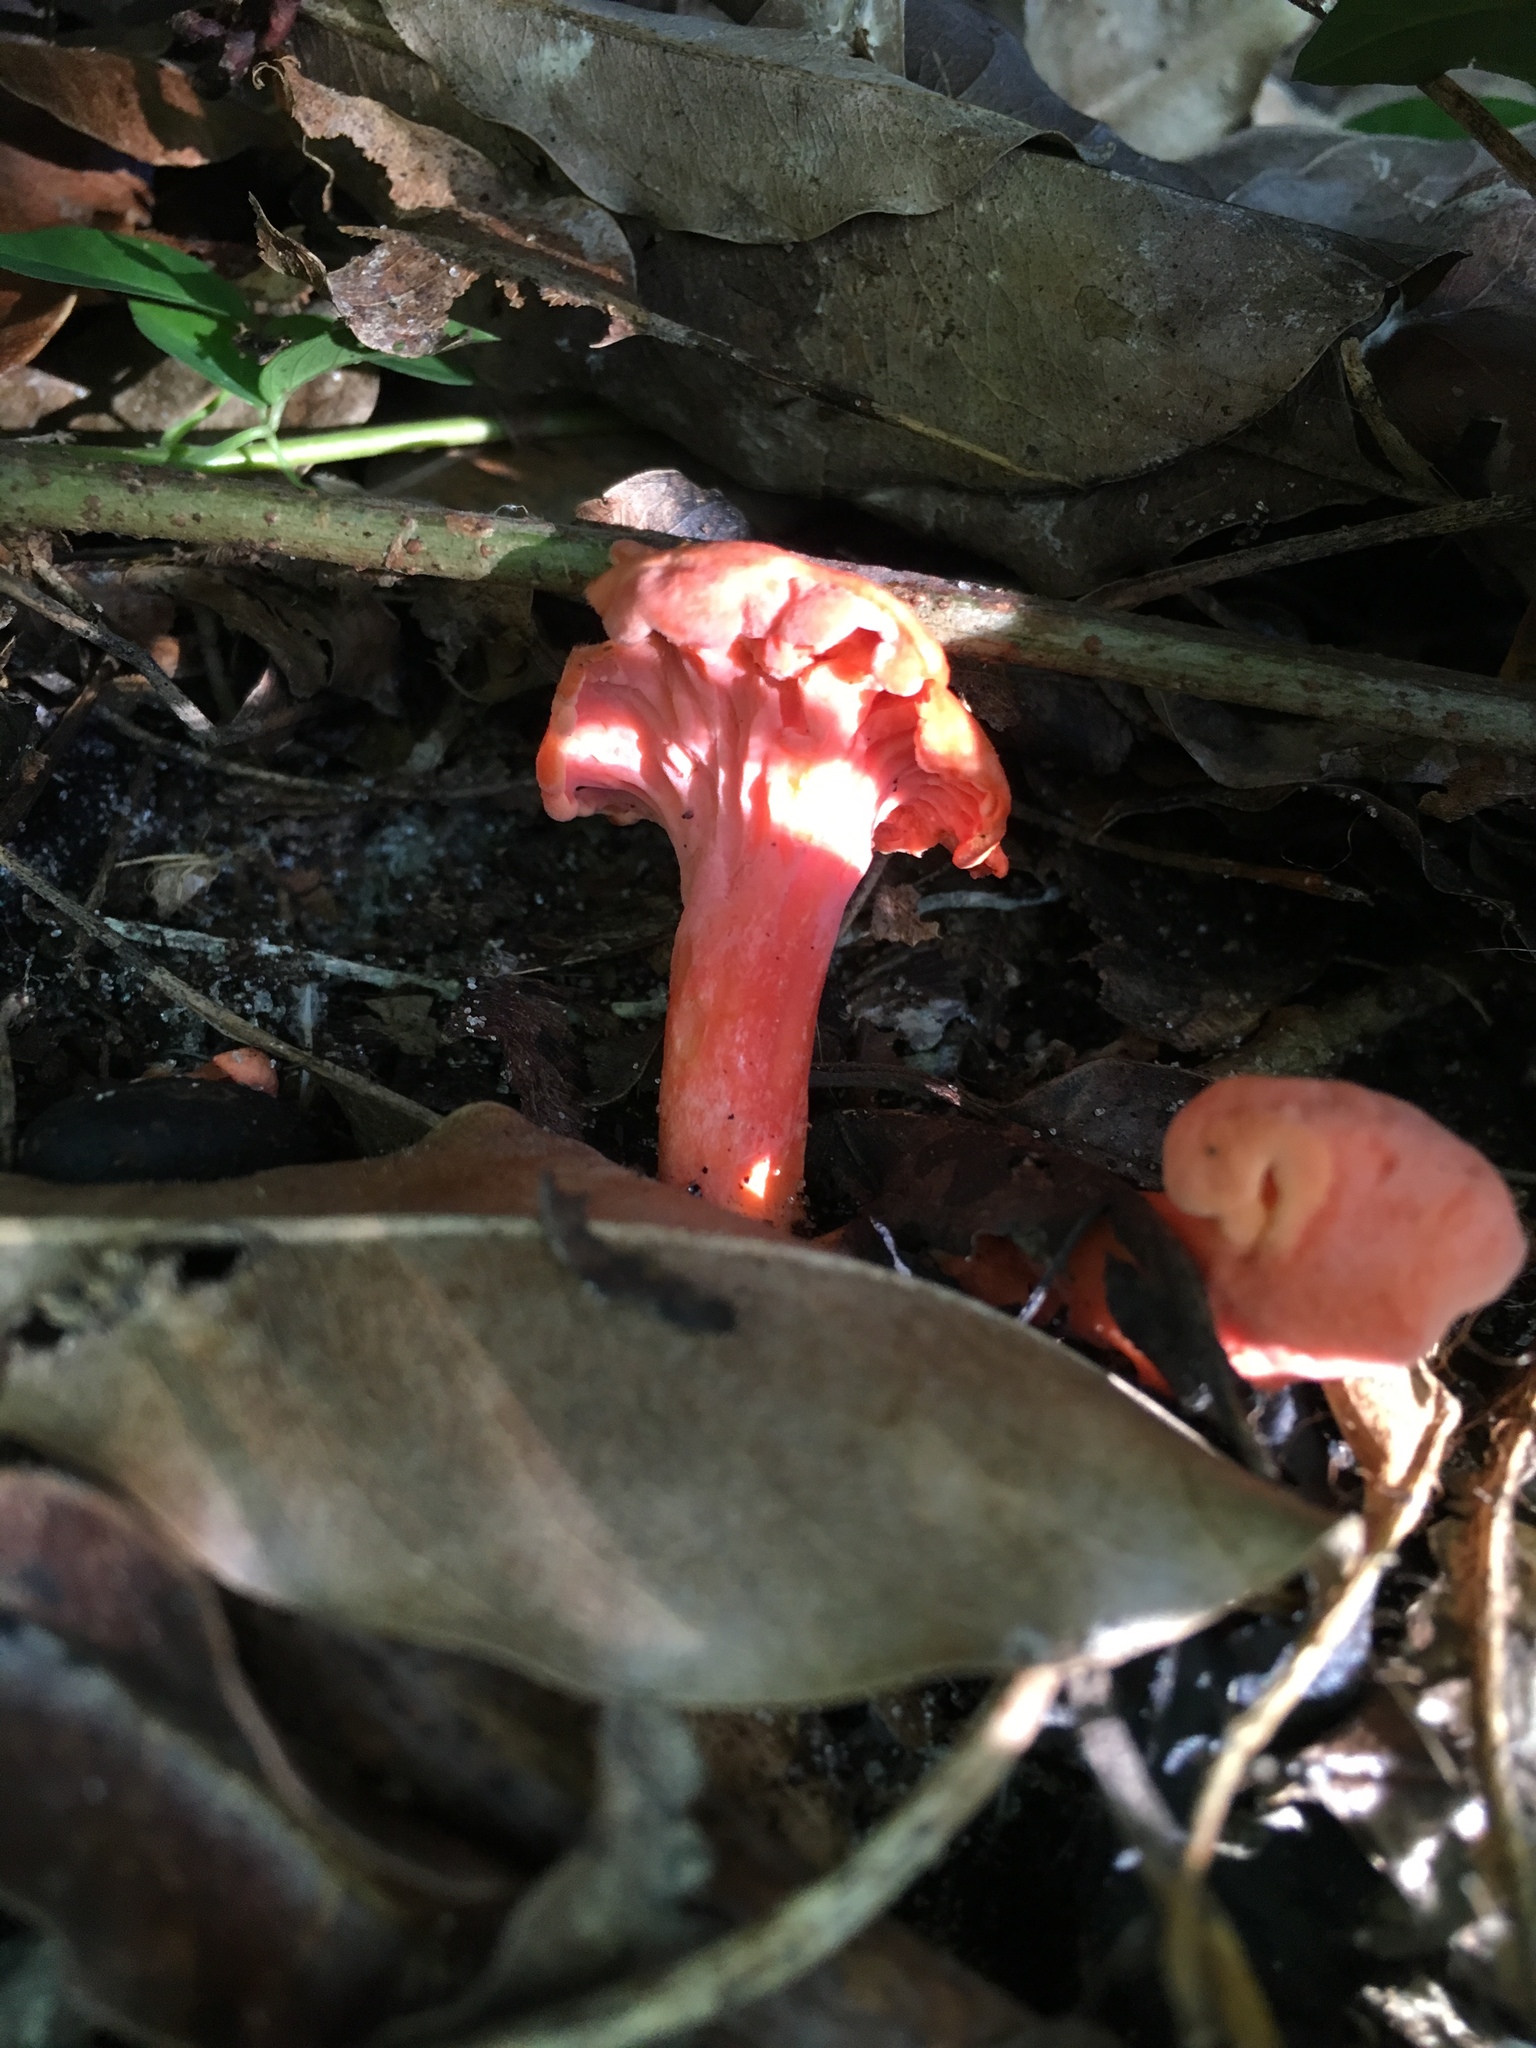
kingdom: Fungi
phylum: Basidiomycota
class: Agaricomycetes
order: Cantharellales
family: Hydnaceae
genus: Cantharellus
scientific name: Cantharellus coccolobae
